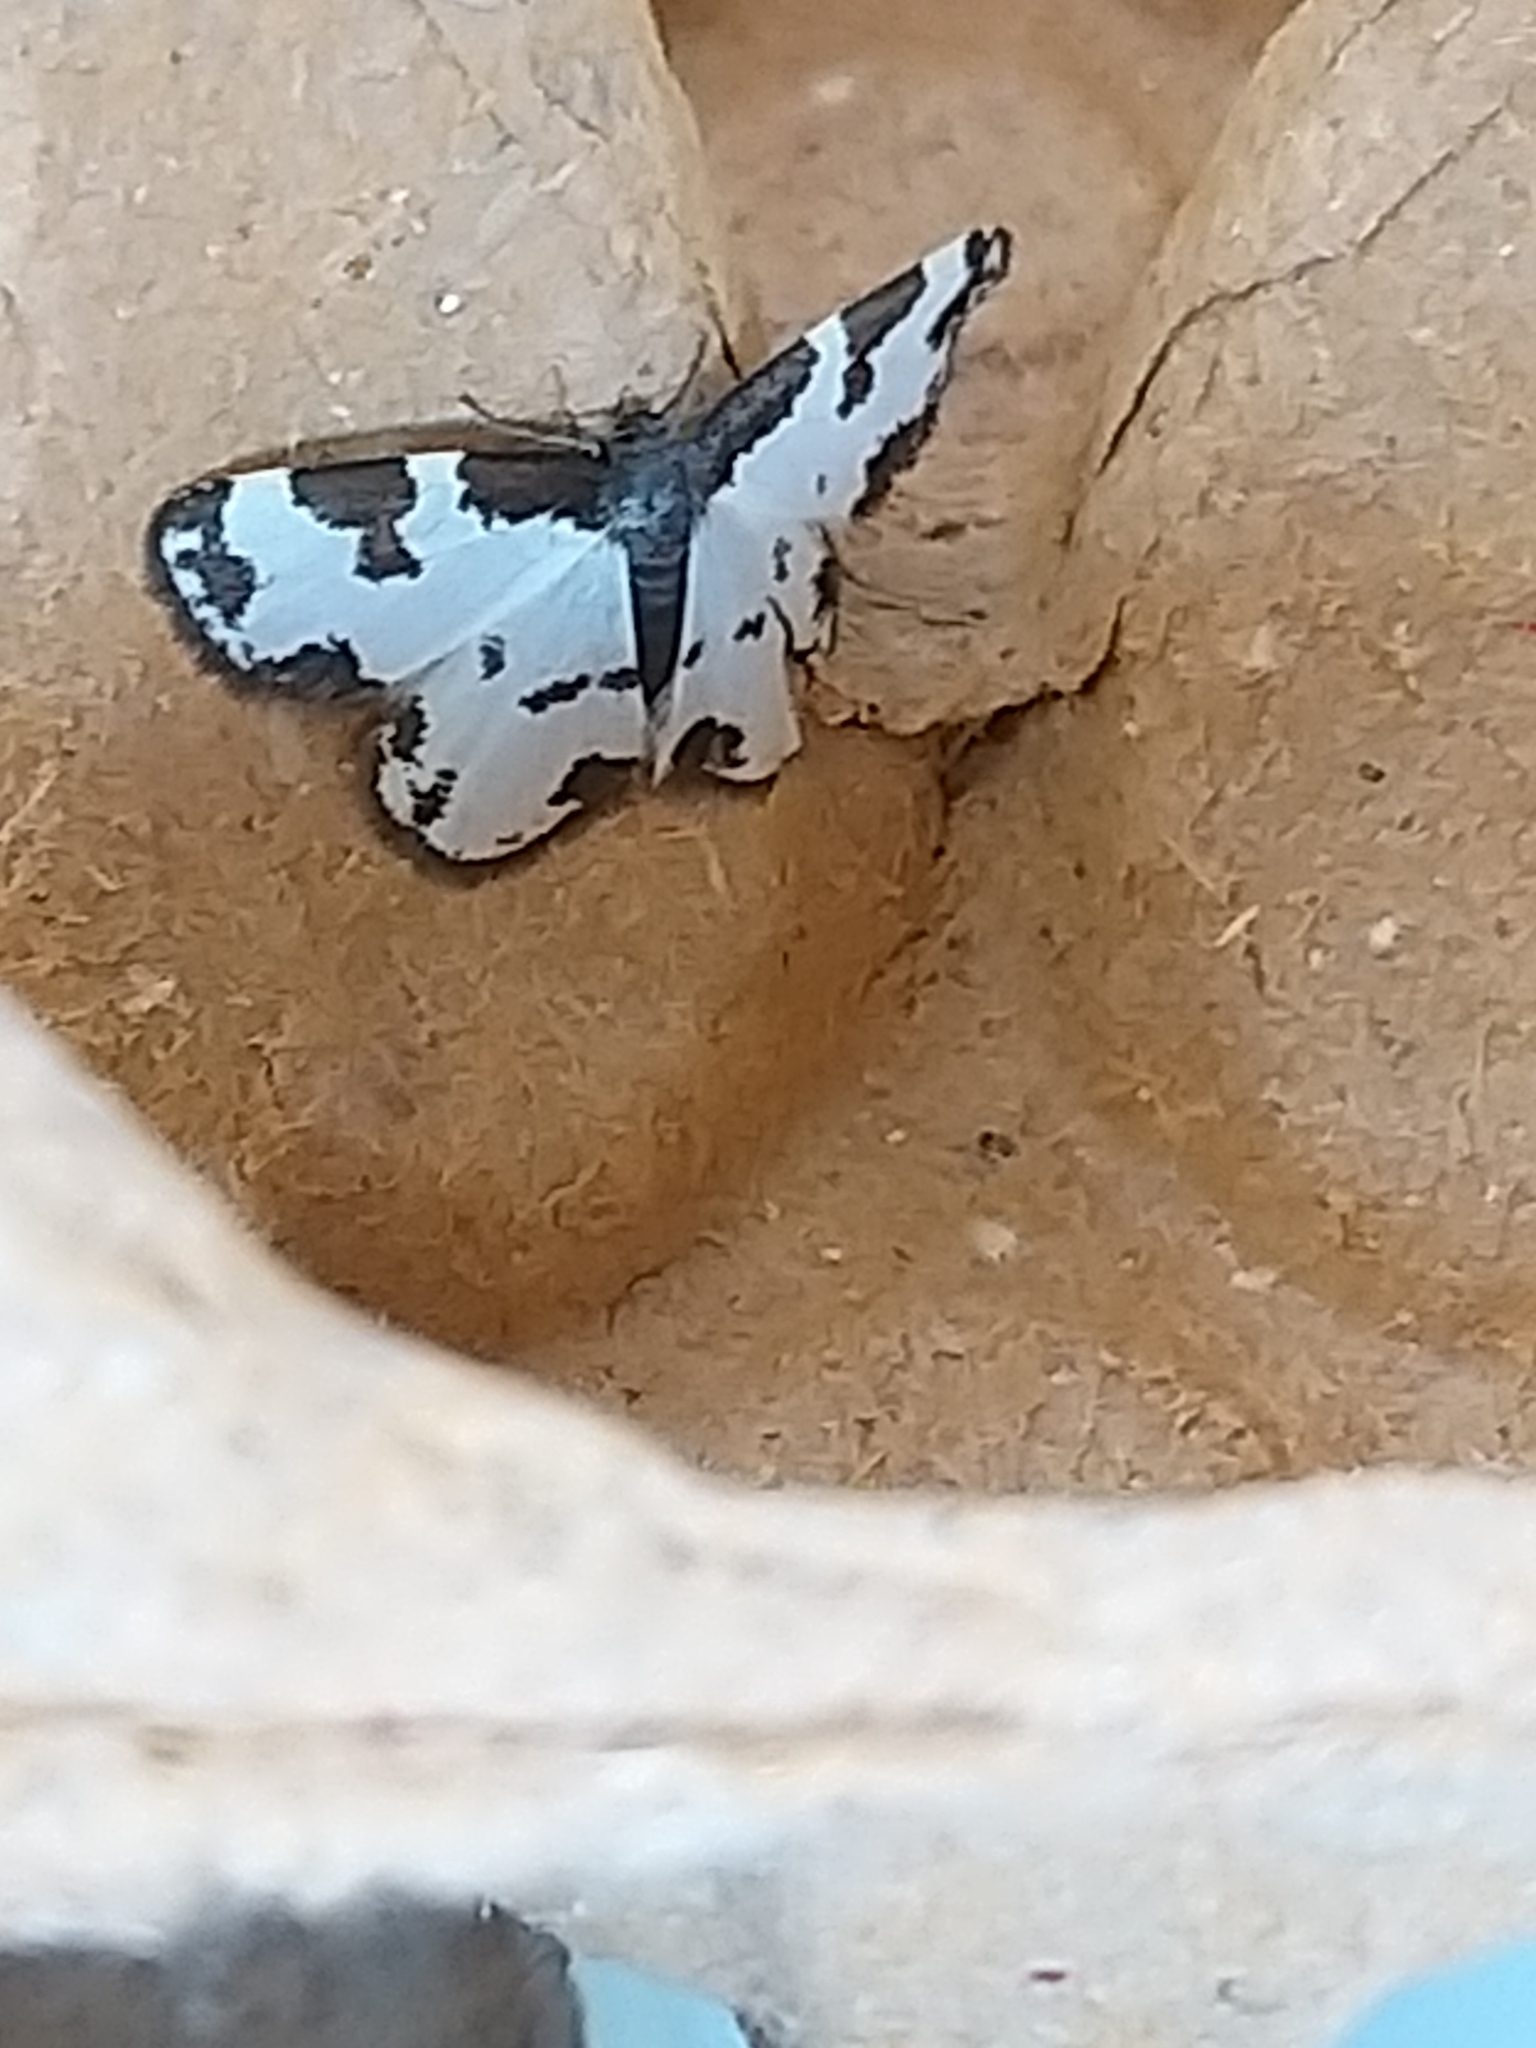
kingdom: Animalia
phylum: Arthropoda
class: Insecta
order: Lepidoptera
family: Geometridae
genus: Lomaspilis
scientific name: Lomaspilis marginata
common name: Clouded border
